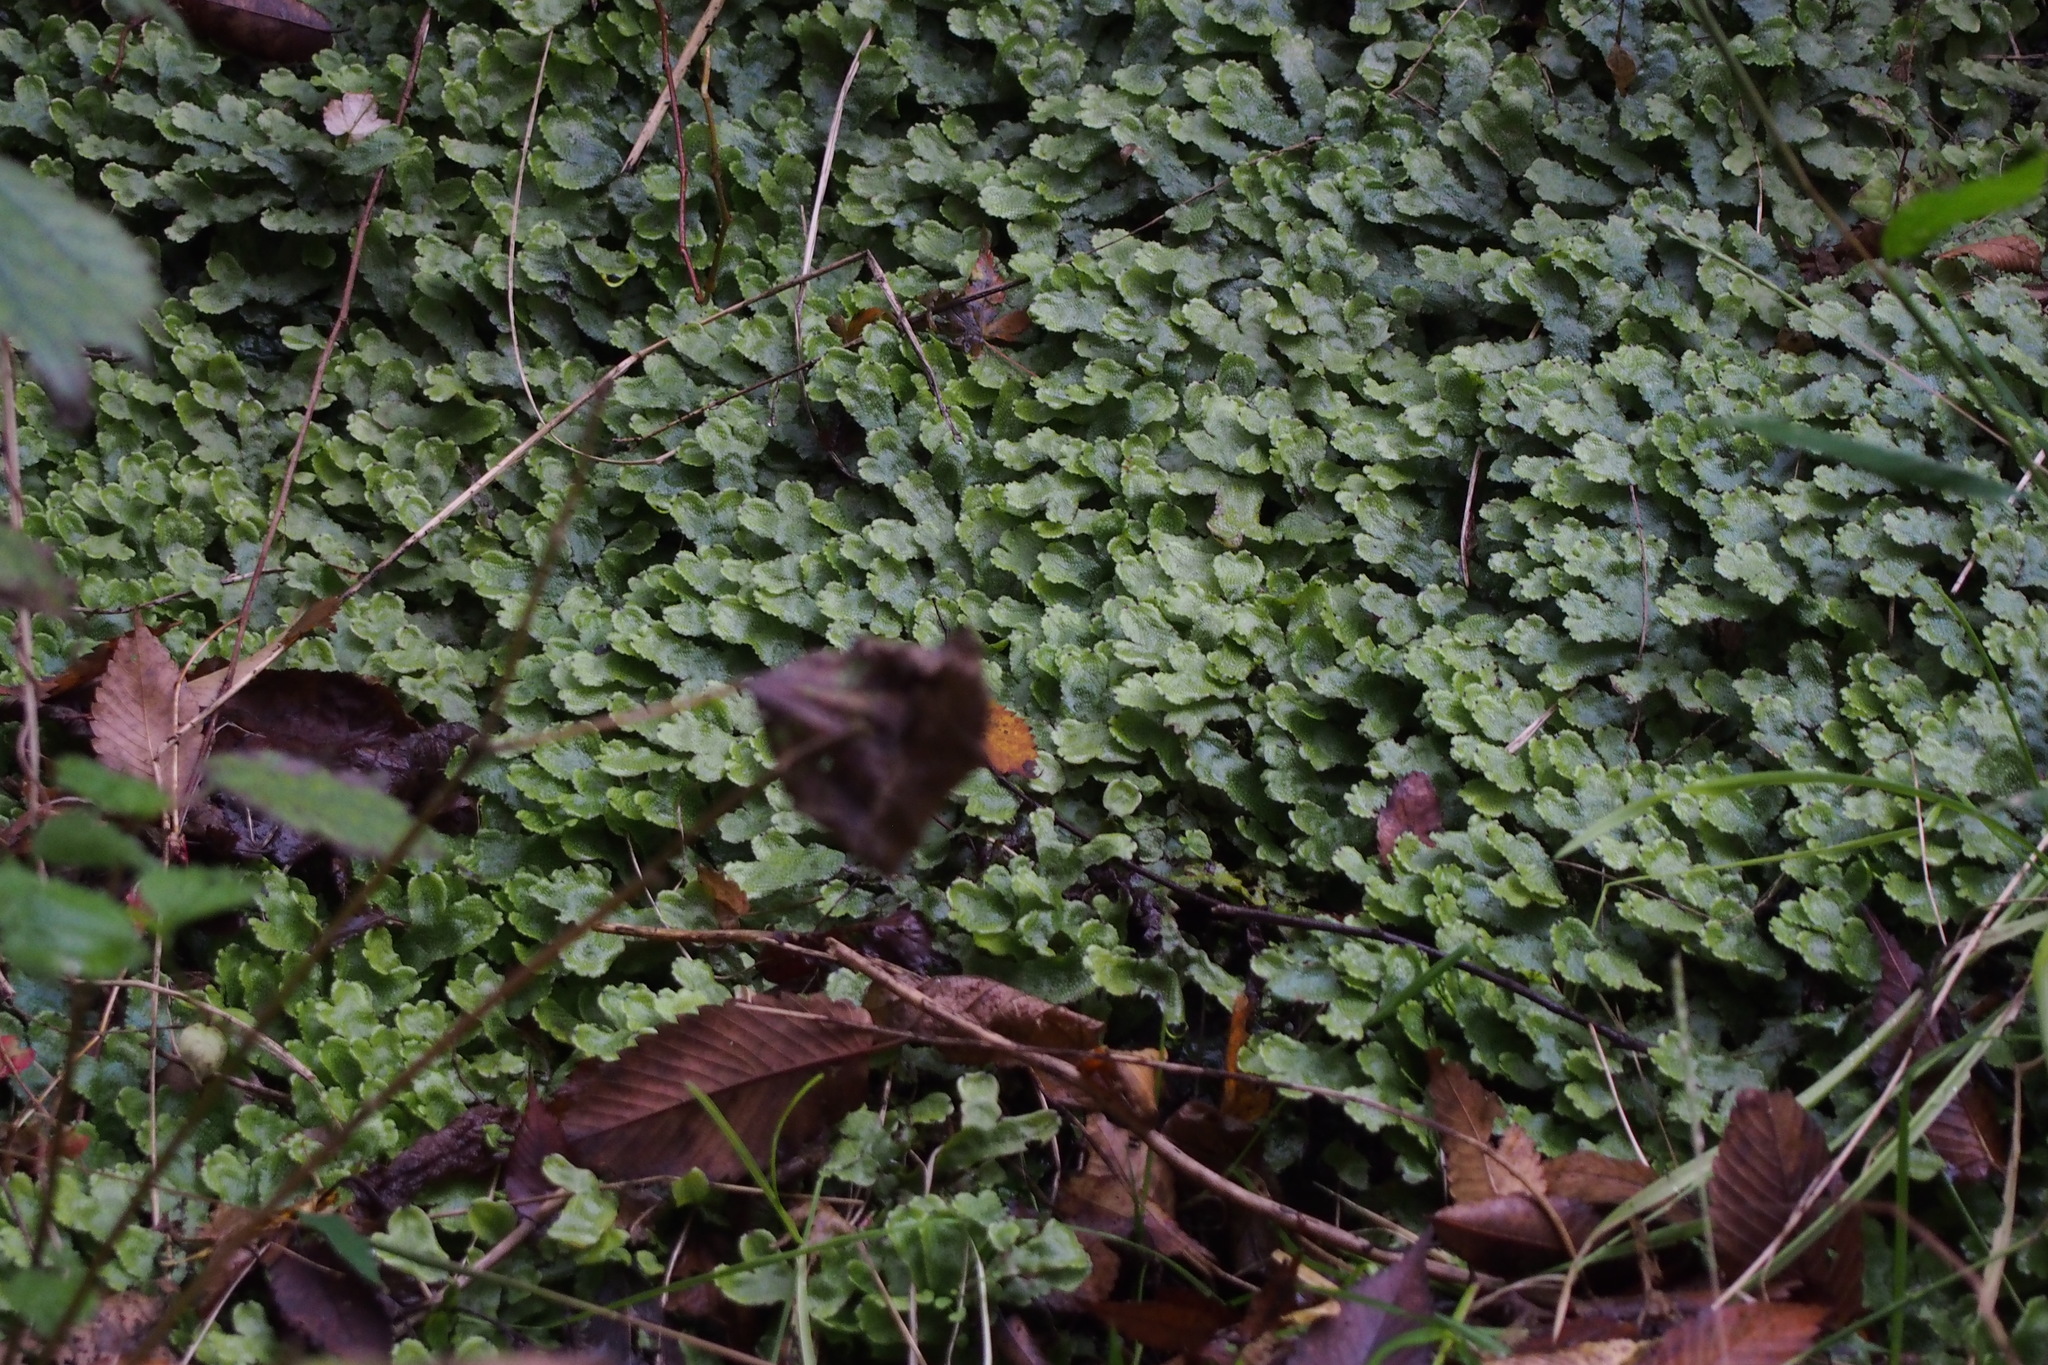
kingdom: Plantae
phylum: Marchantiophyta
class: Marchantiopsida
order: Marchantiales
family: Conocephalaceae
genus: Sandea
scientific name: Sandea japonica
